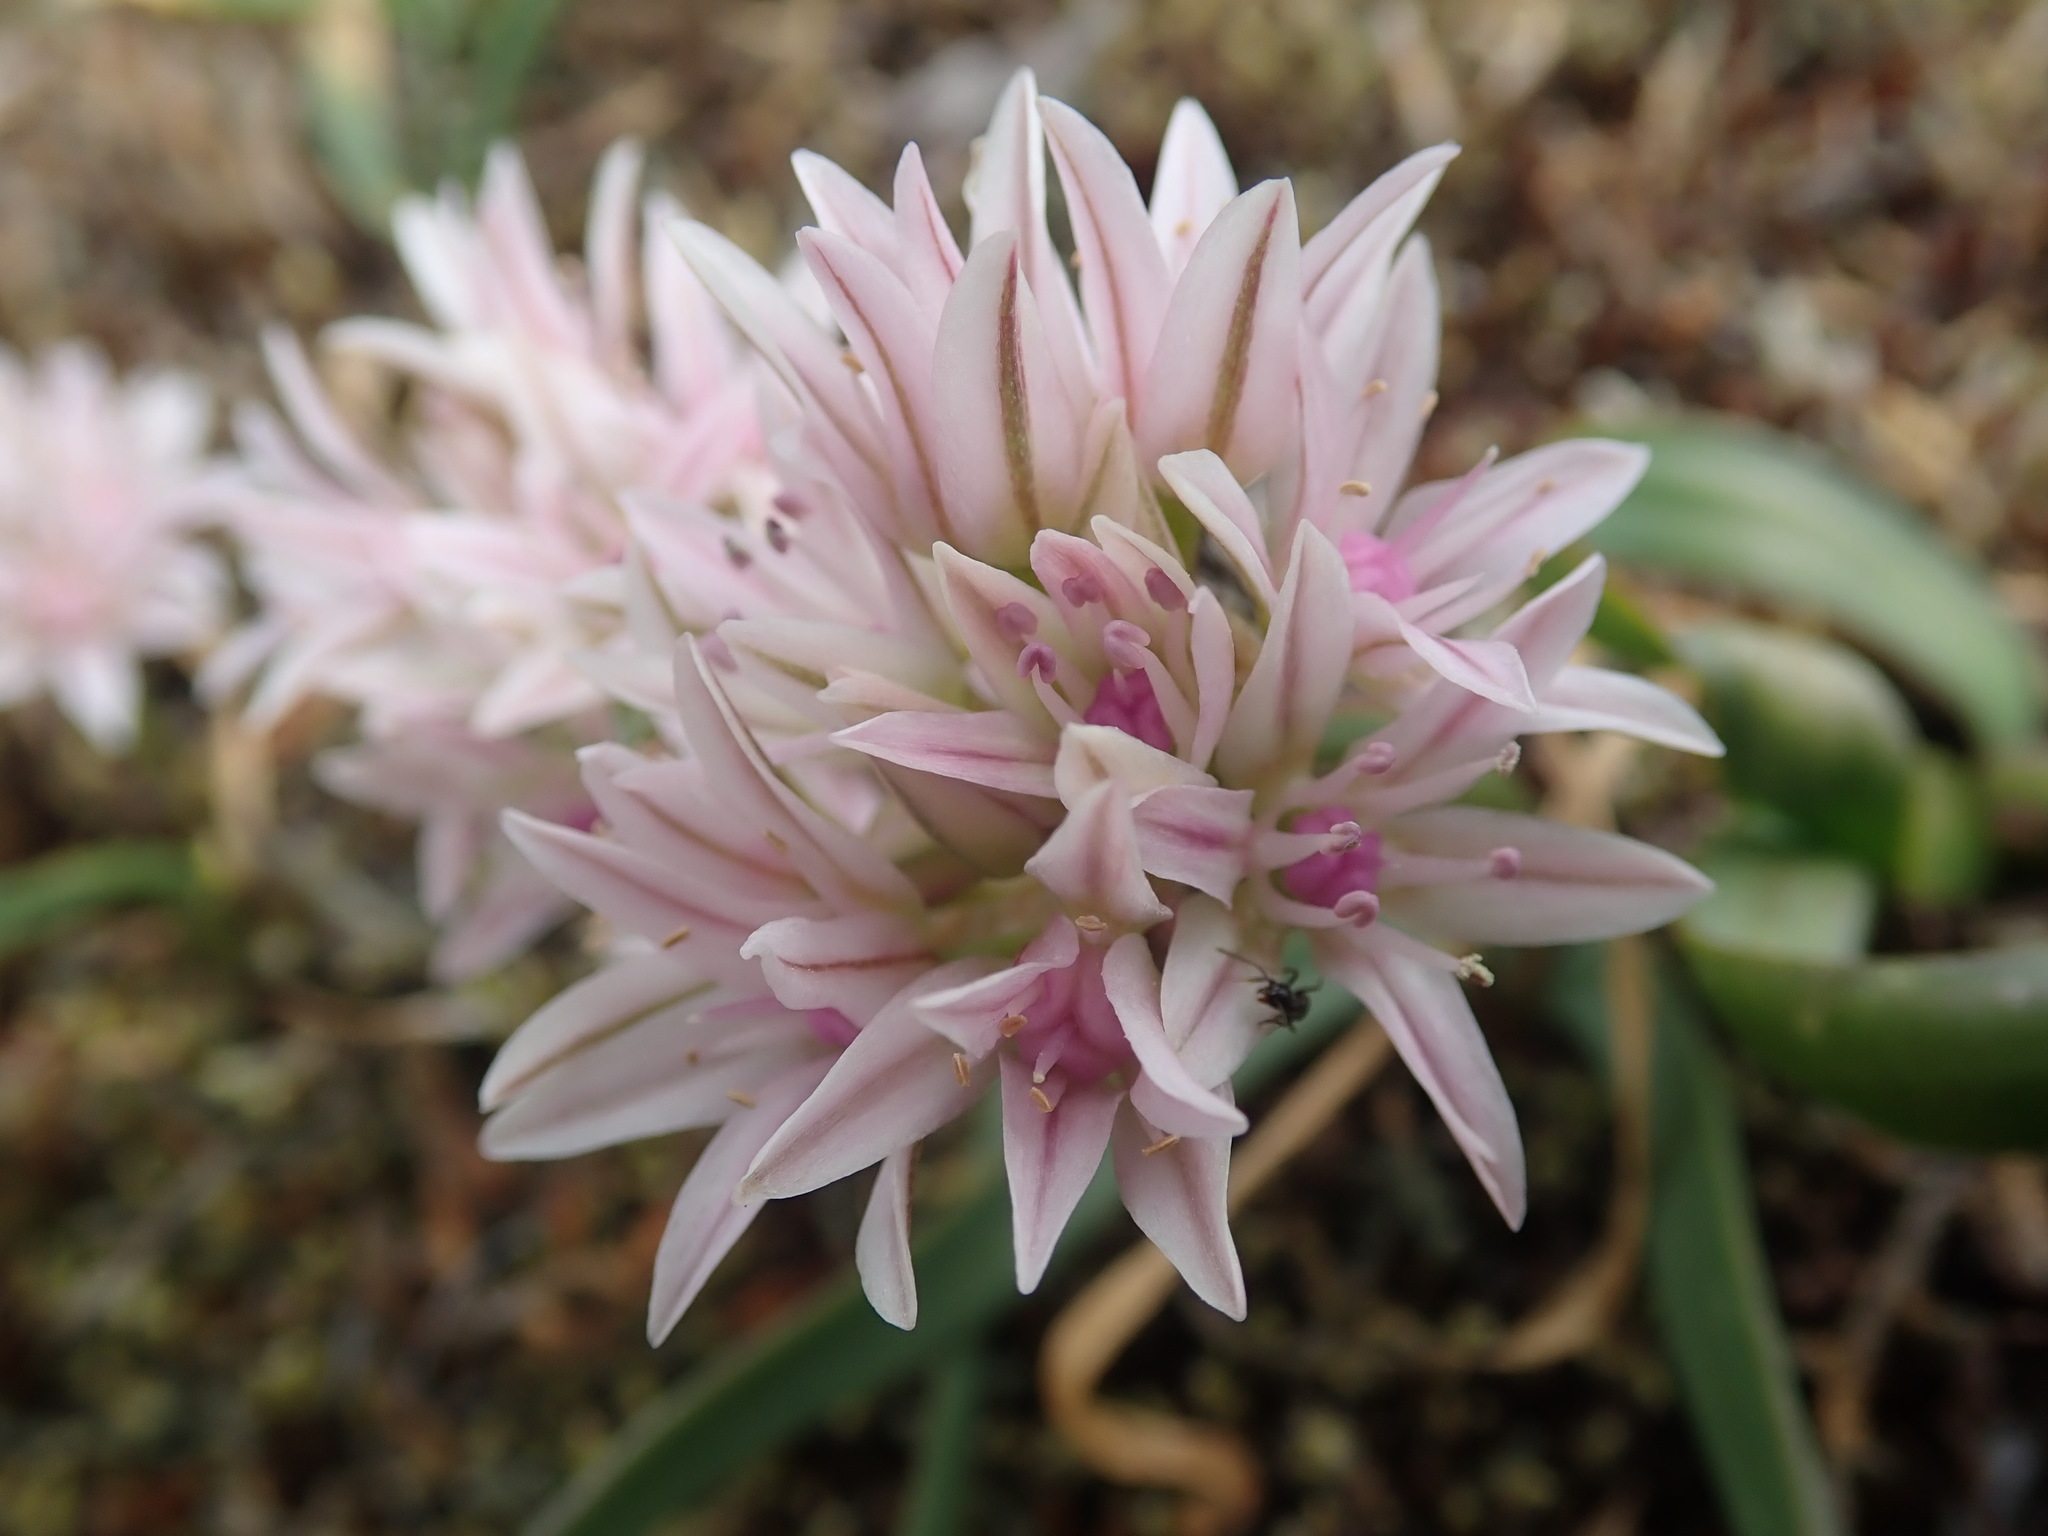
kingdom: Plantae
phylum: Tracheophyta
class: Liliopsida
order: Asparagales
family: Amaryllidaceae
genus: Allium
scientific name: Allium crenulatum
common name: Olympic onion
